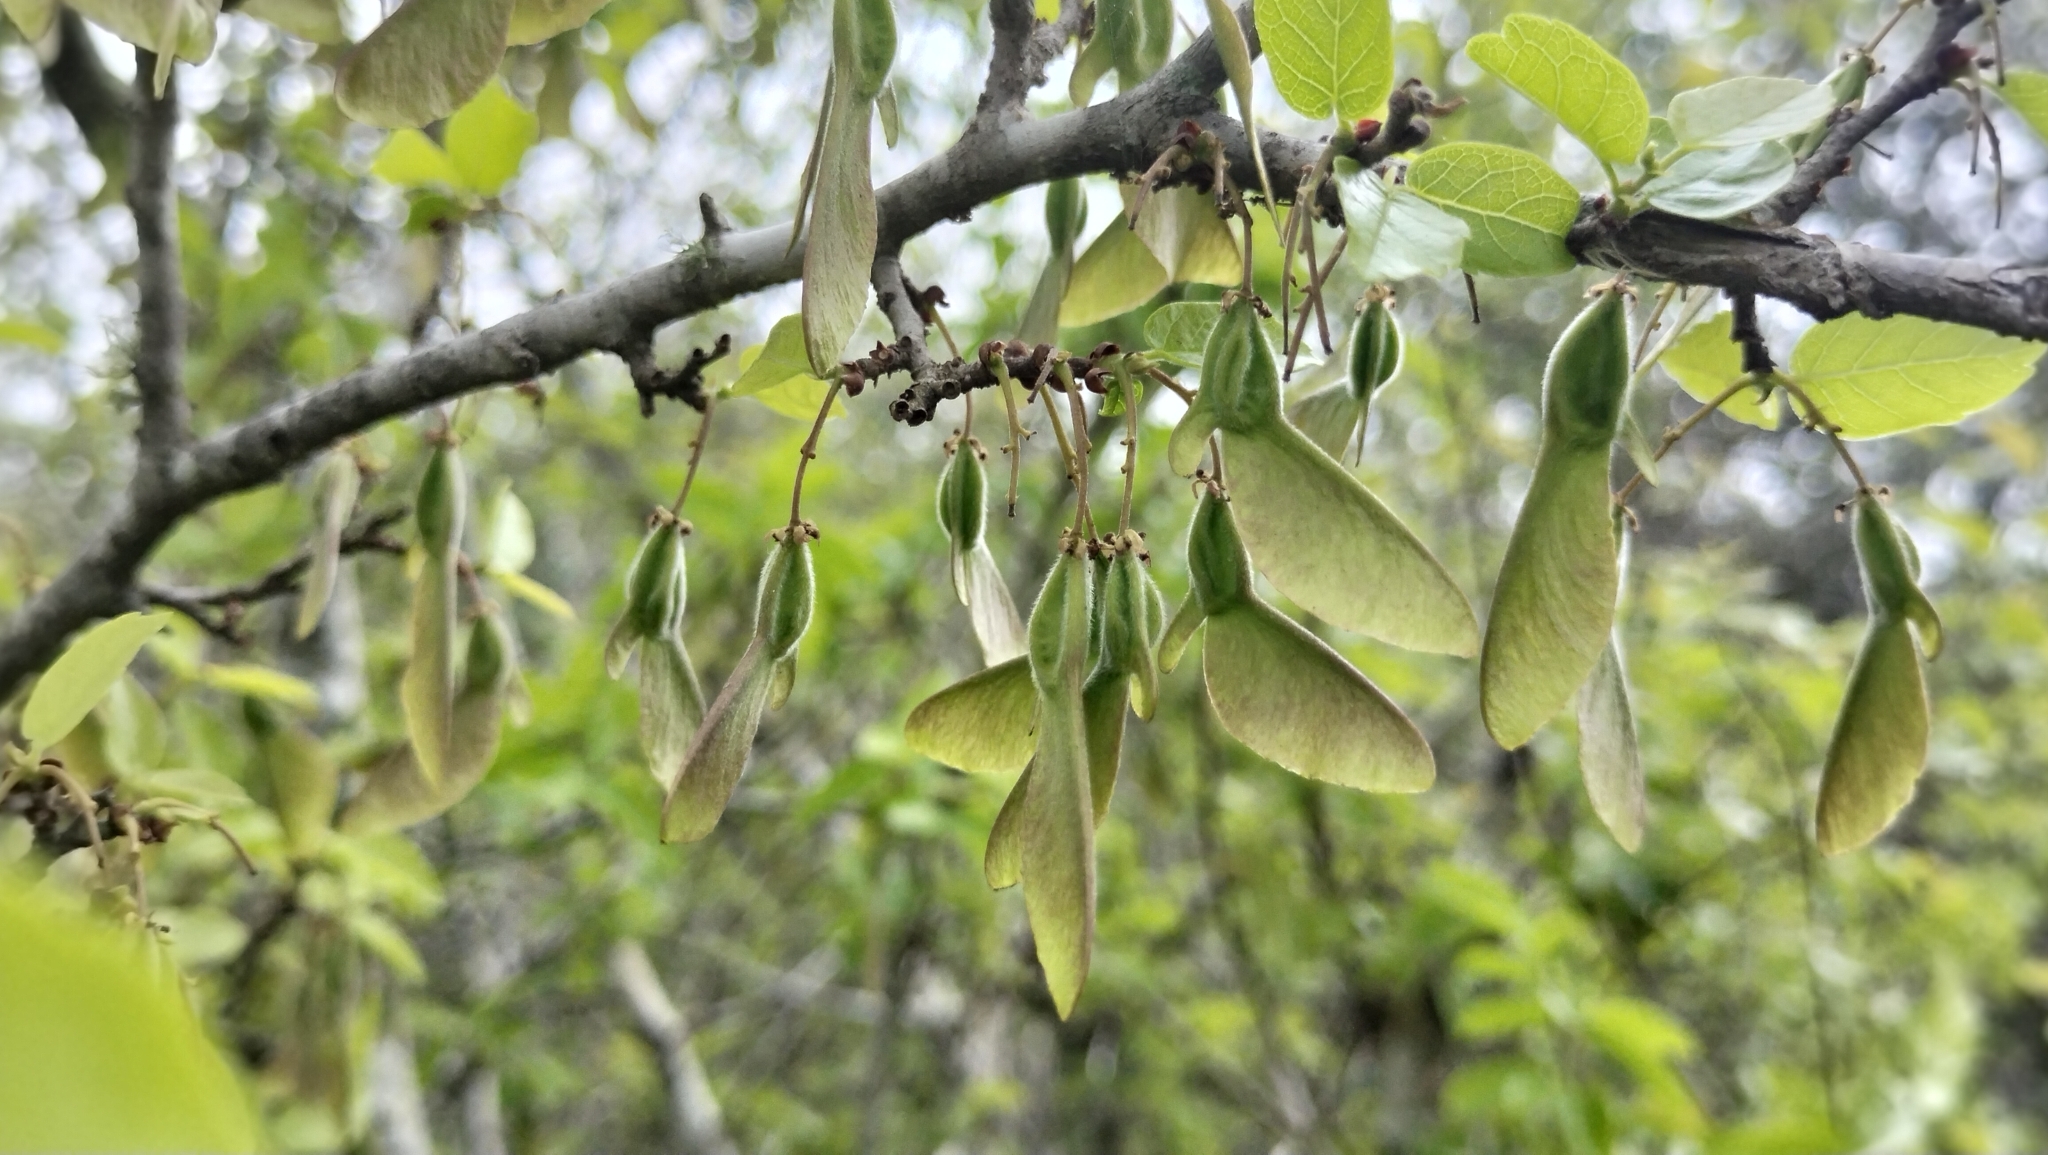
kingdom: Plantae
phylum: Tracheophyta
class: Magnoliopsida
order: Rosales
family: Ulmaceae
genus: Phyllostylon
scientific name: Phyllostylon brasiliensis
